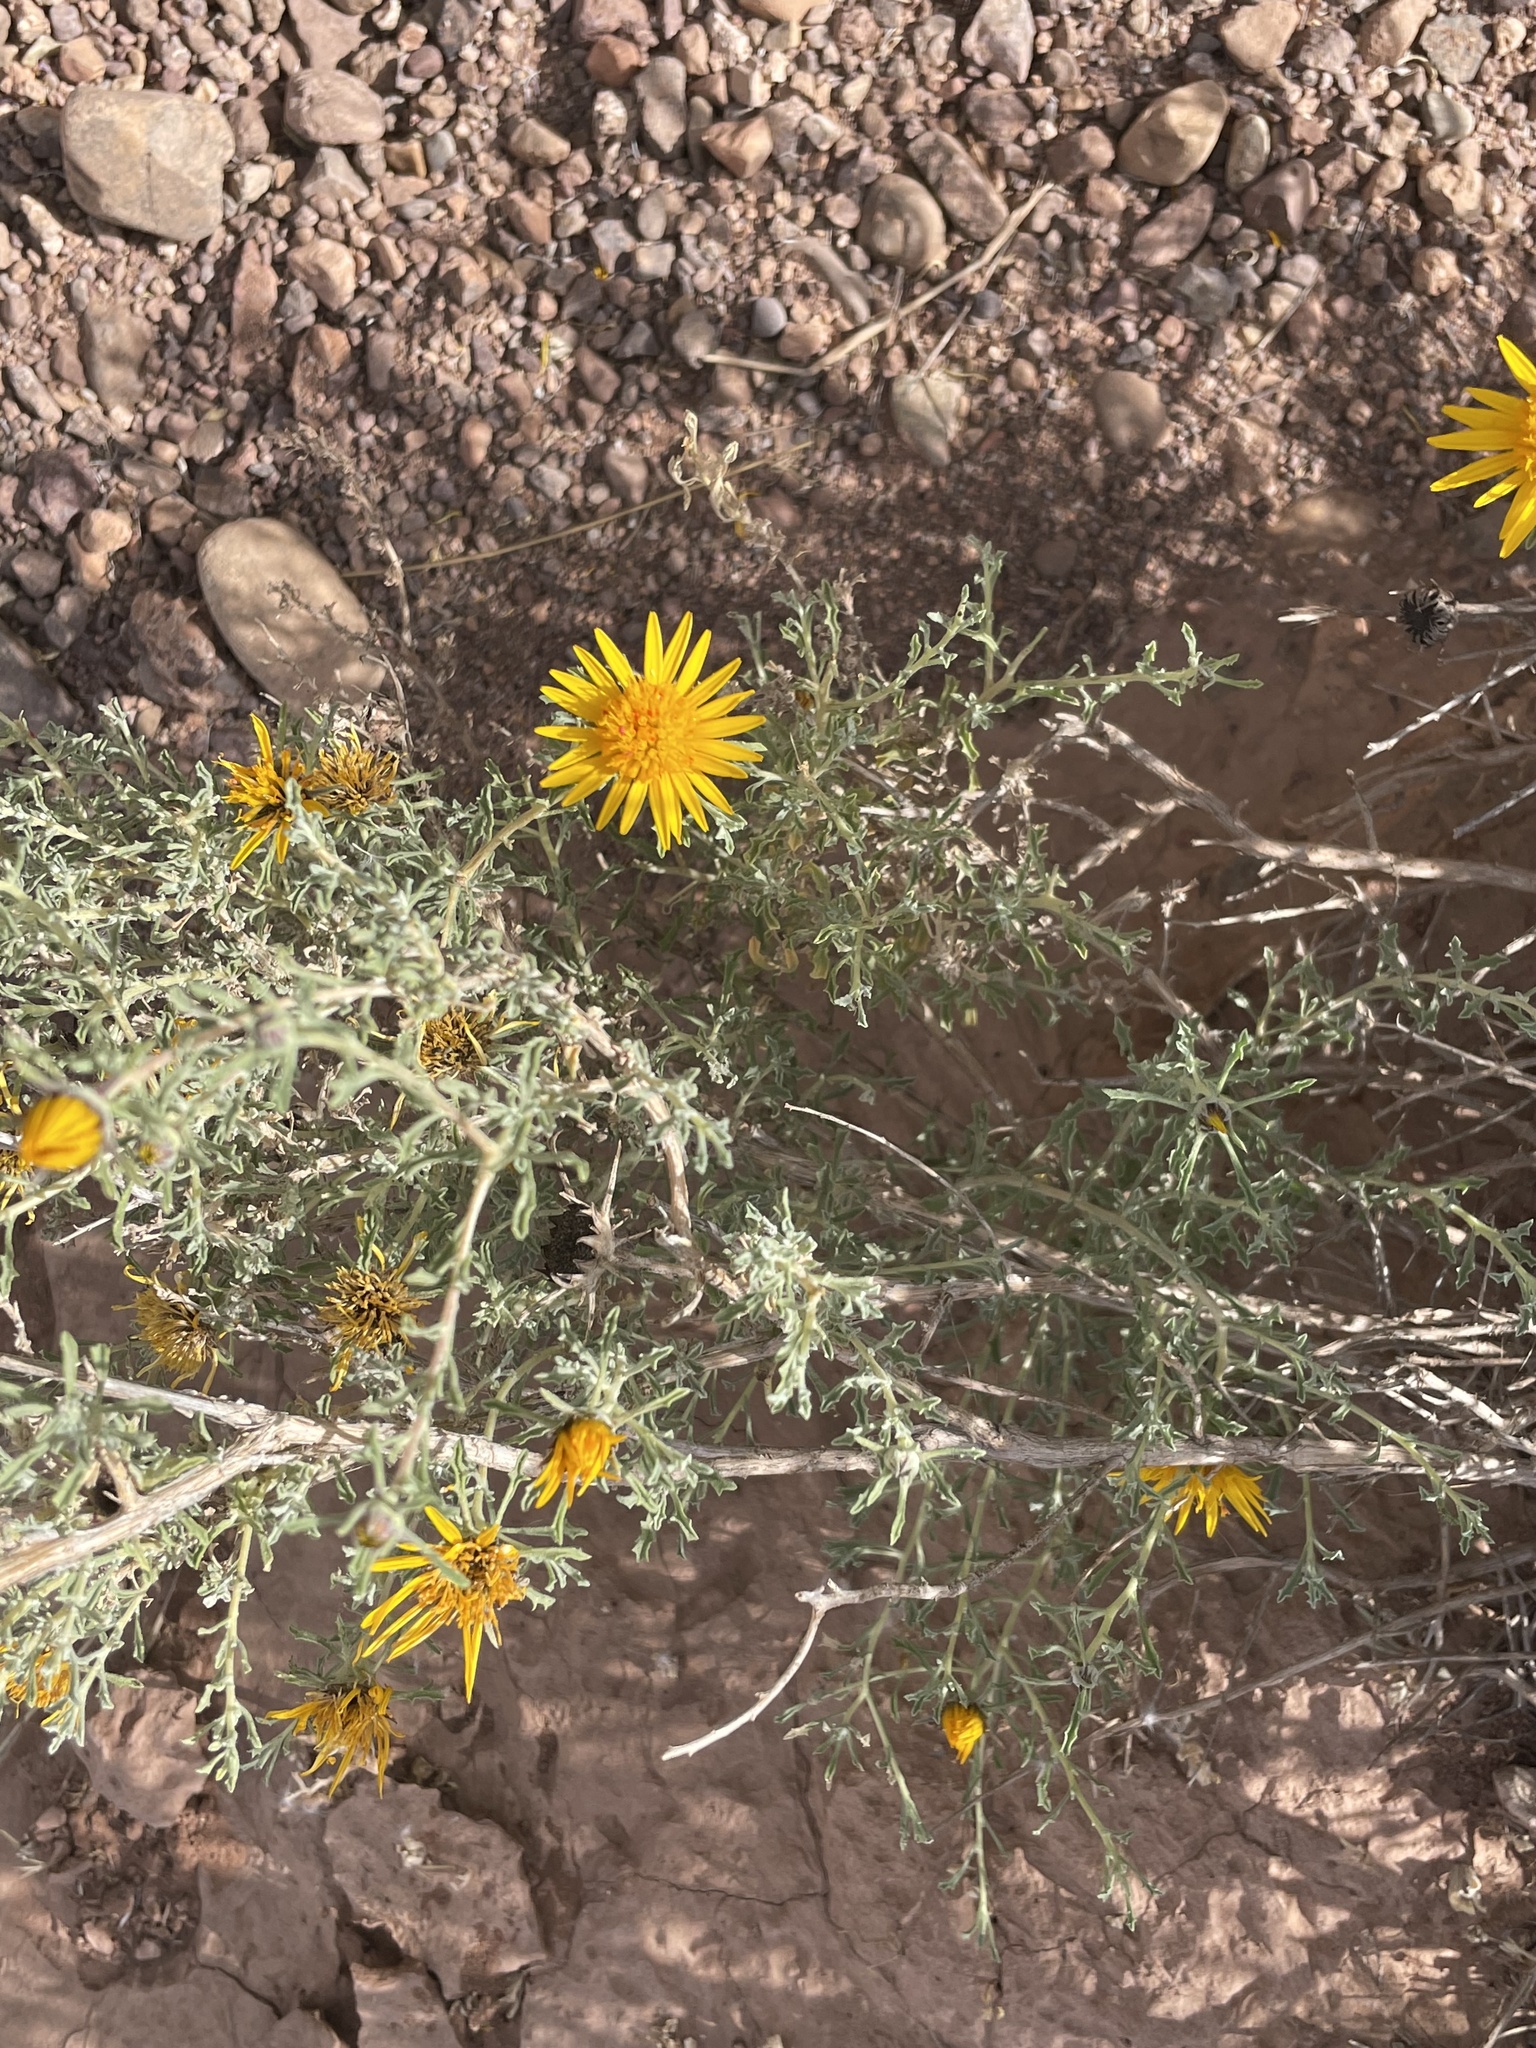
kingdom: Plantae
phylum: Tracheophyta
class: Magnoliopsida
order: Asterales
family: Asteraceae
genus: Anvillea
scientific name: Anvillea garcinii
